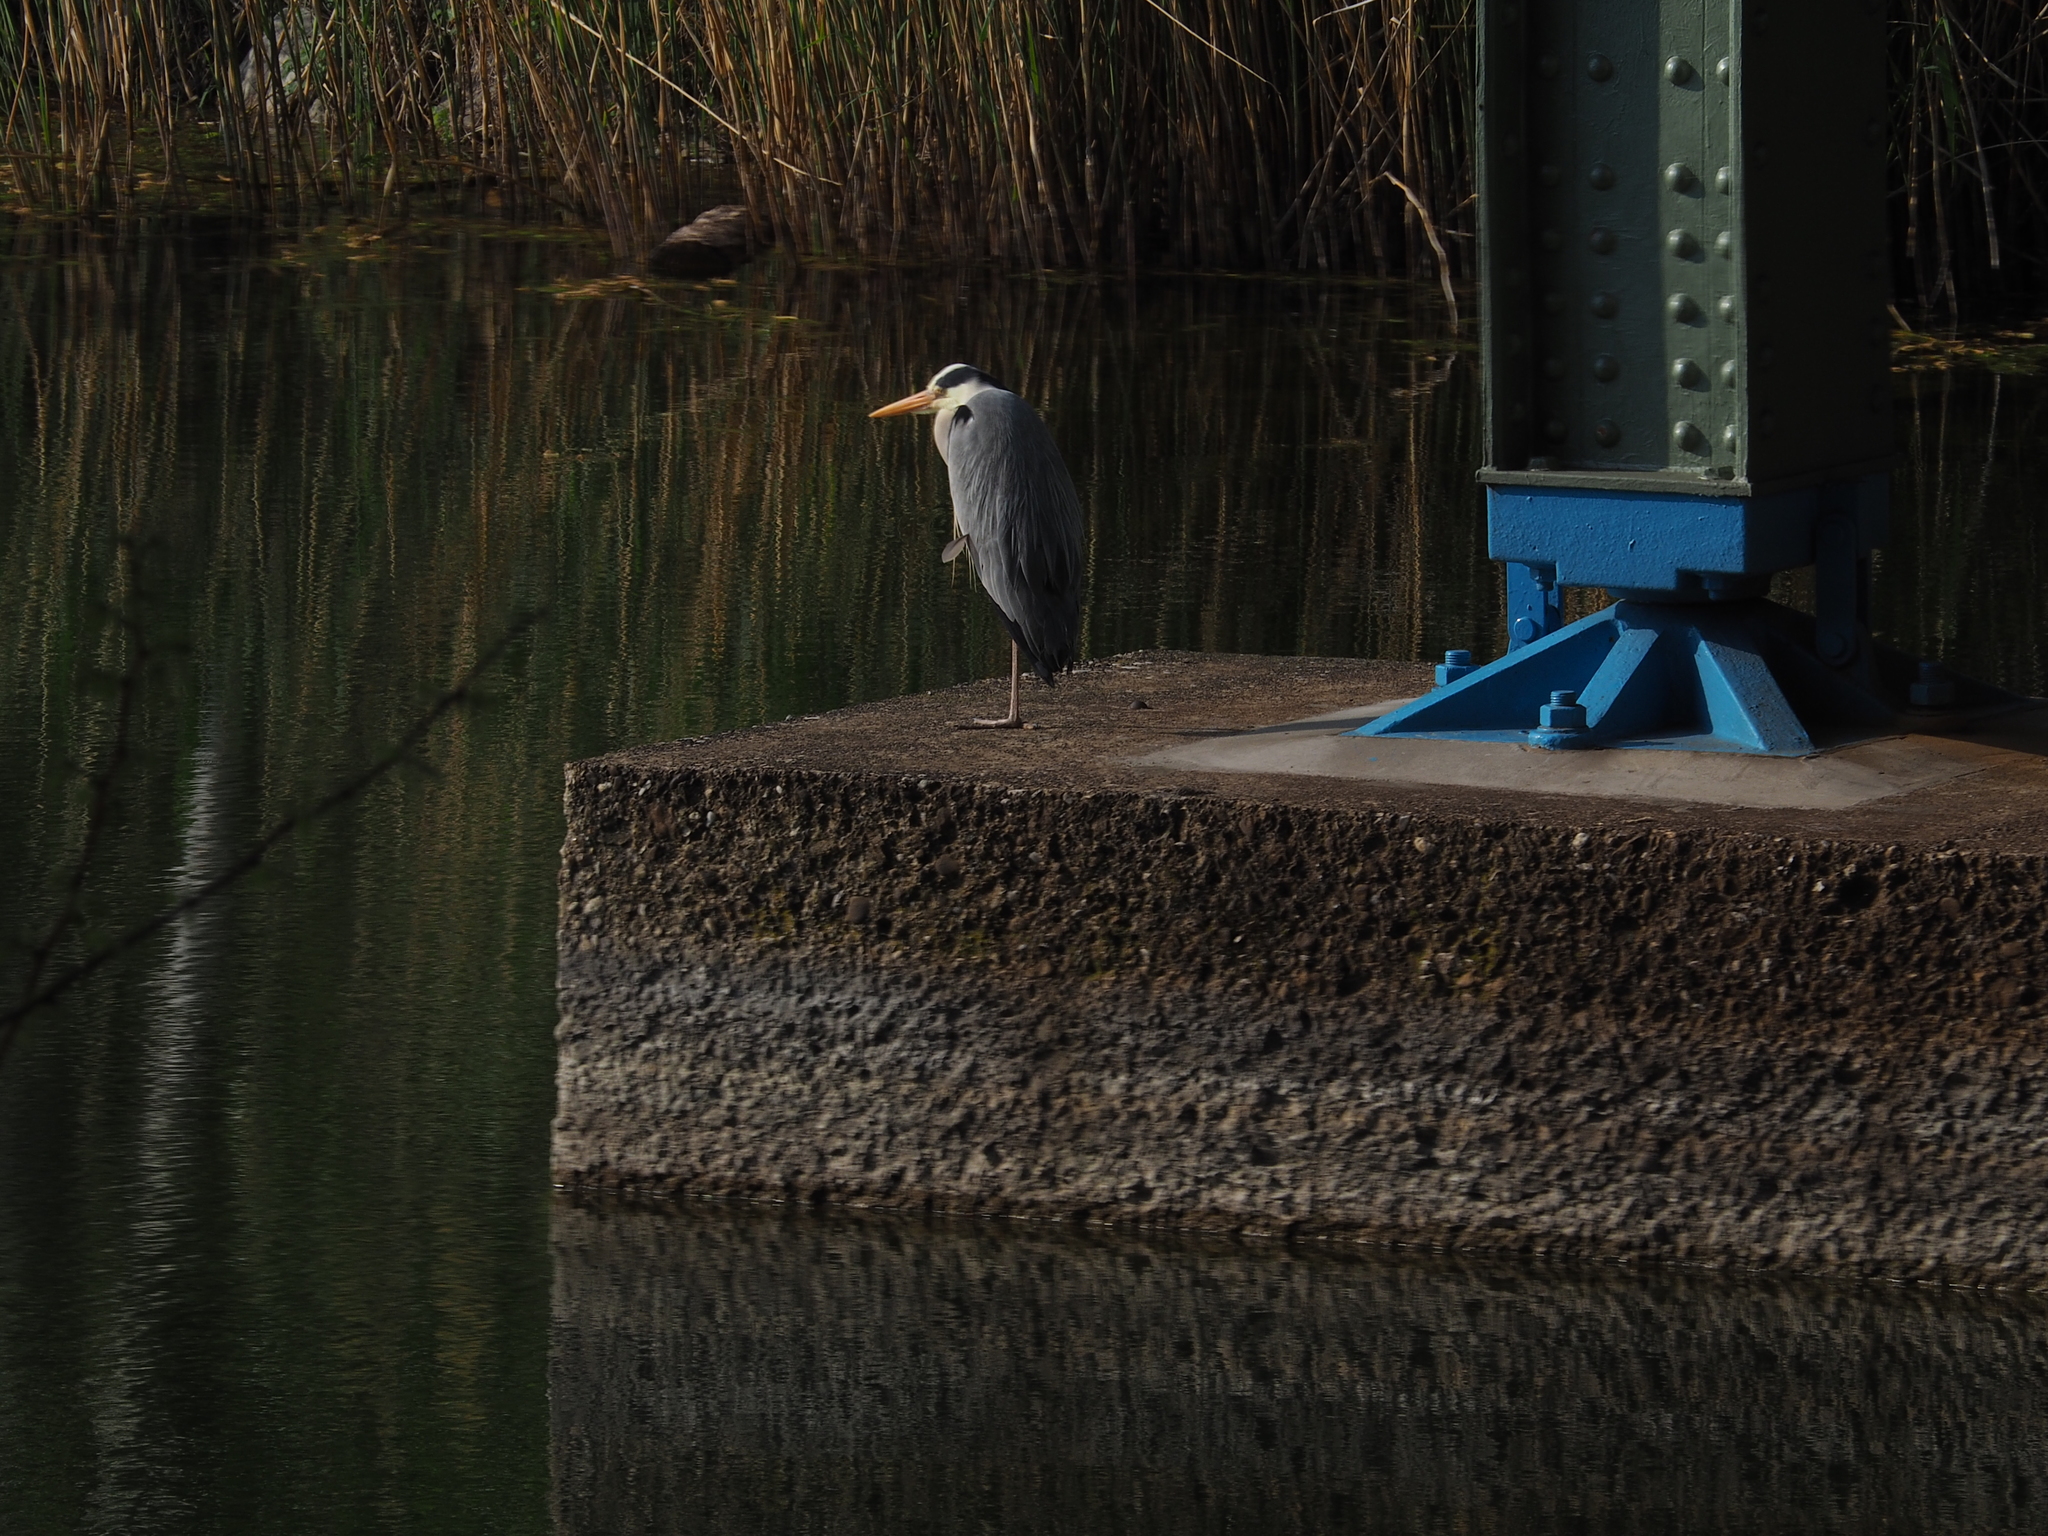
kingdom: Animalia
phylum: Chordata
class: Aves
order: Pelecaniformes
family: Ardeidae
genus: Ardea
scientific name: Ardea cinerea
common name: Grey heron
